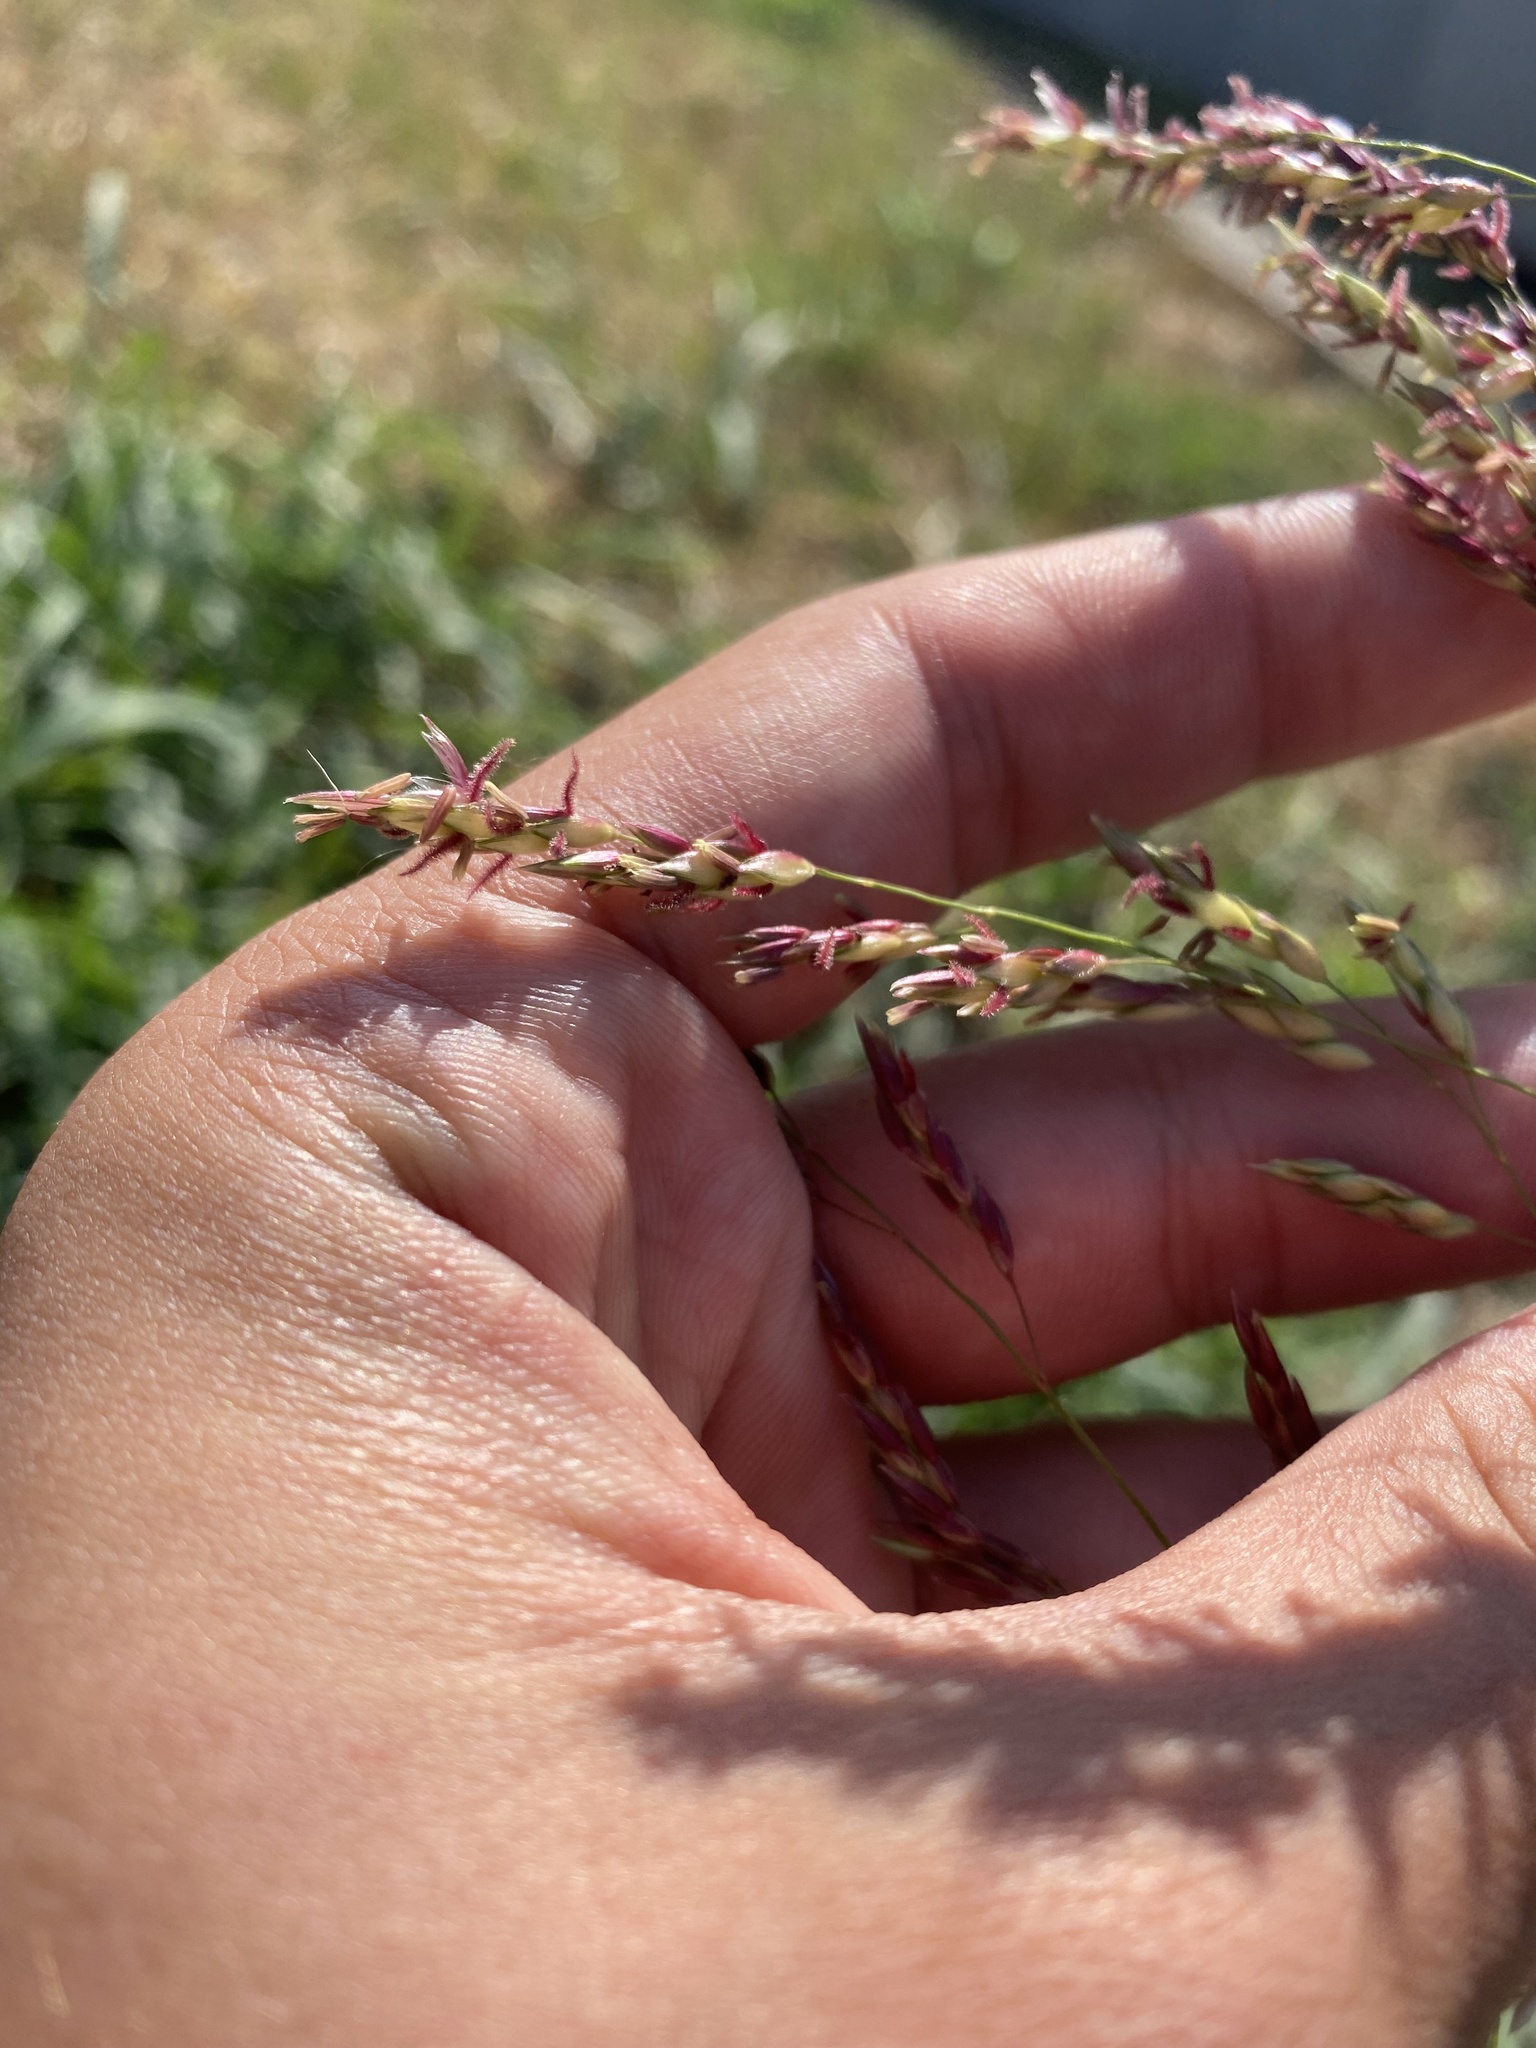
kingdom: Plantae
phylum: Tracheophyta
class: Liliopsida
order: Poales
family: Poaceae
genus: Sorghum
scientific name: Sorghum halepense
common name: Johnson-grass
